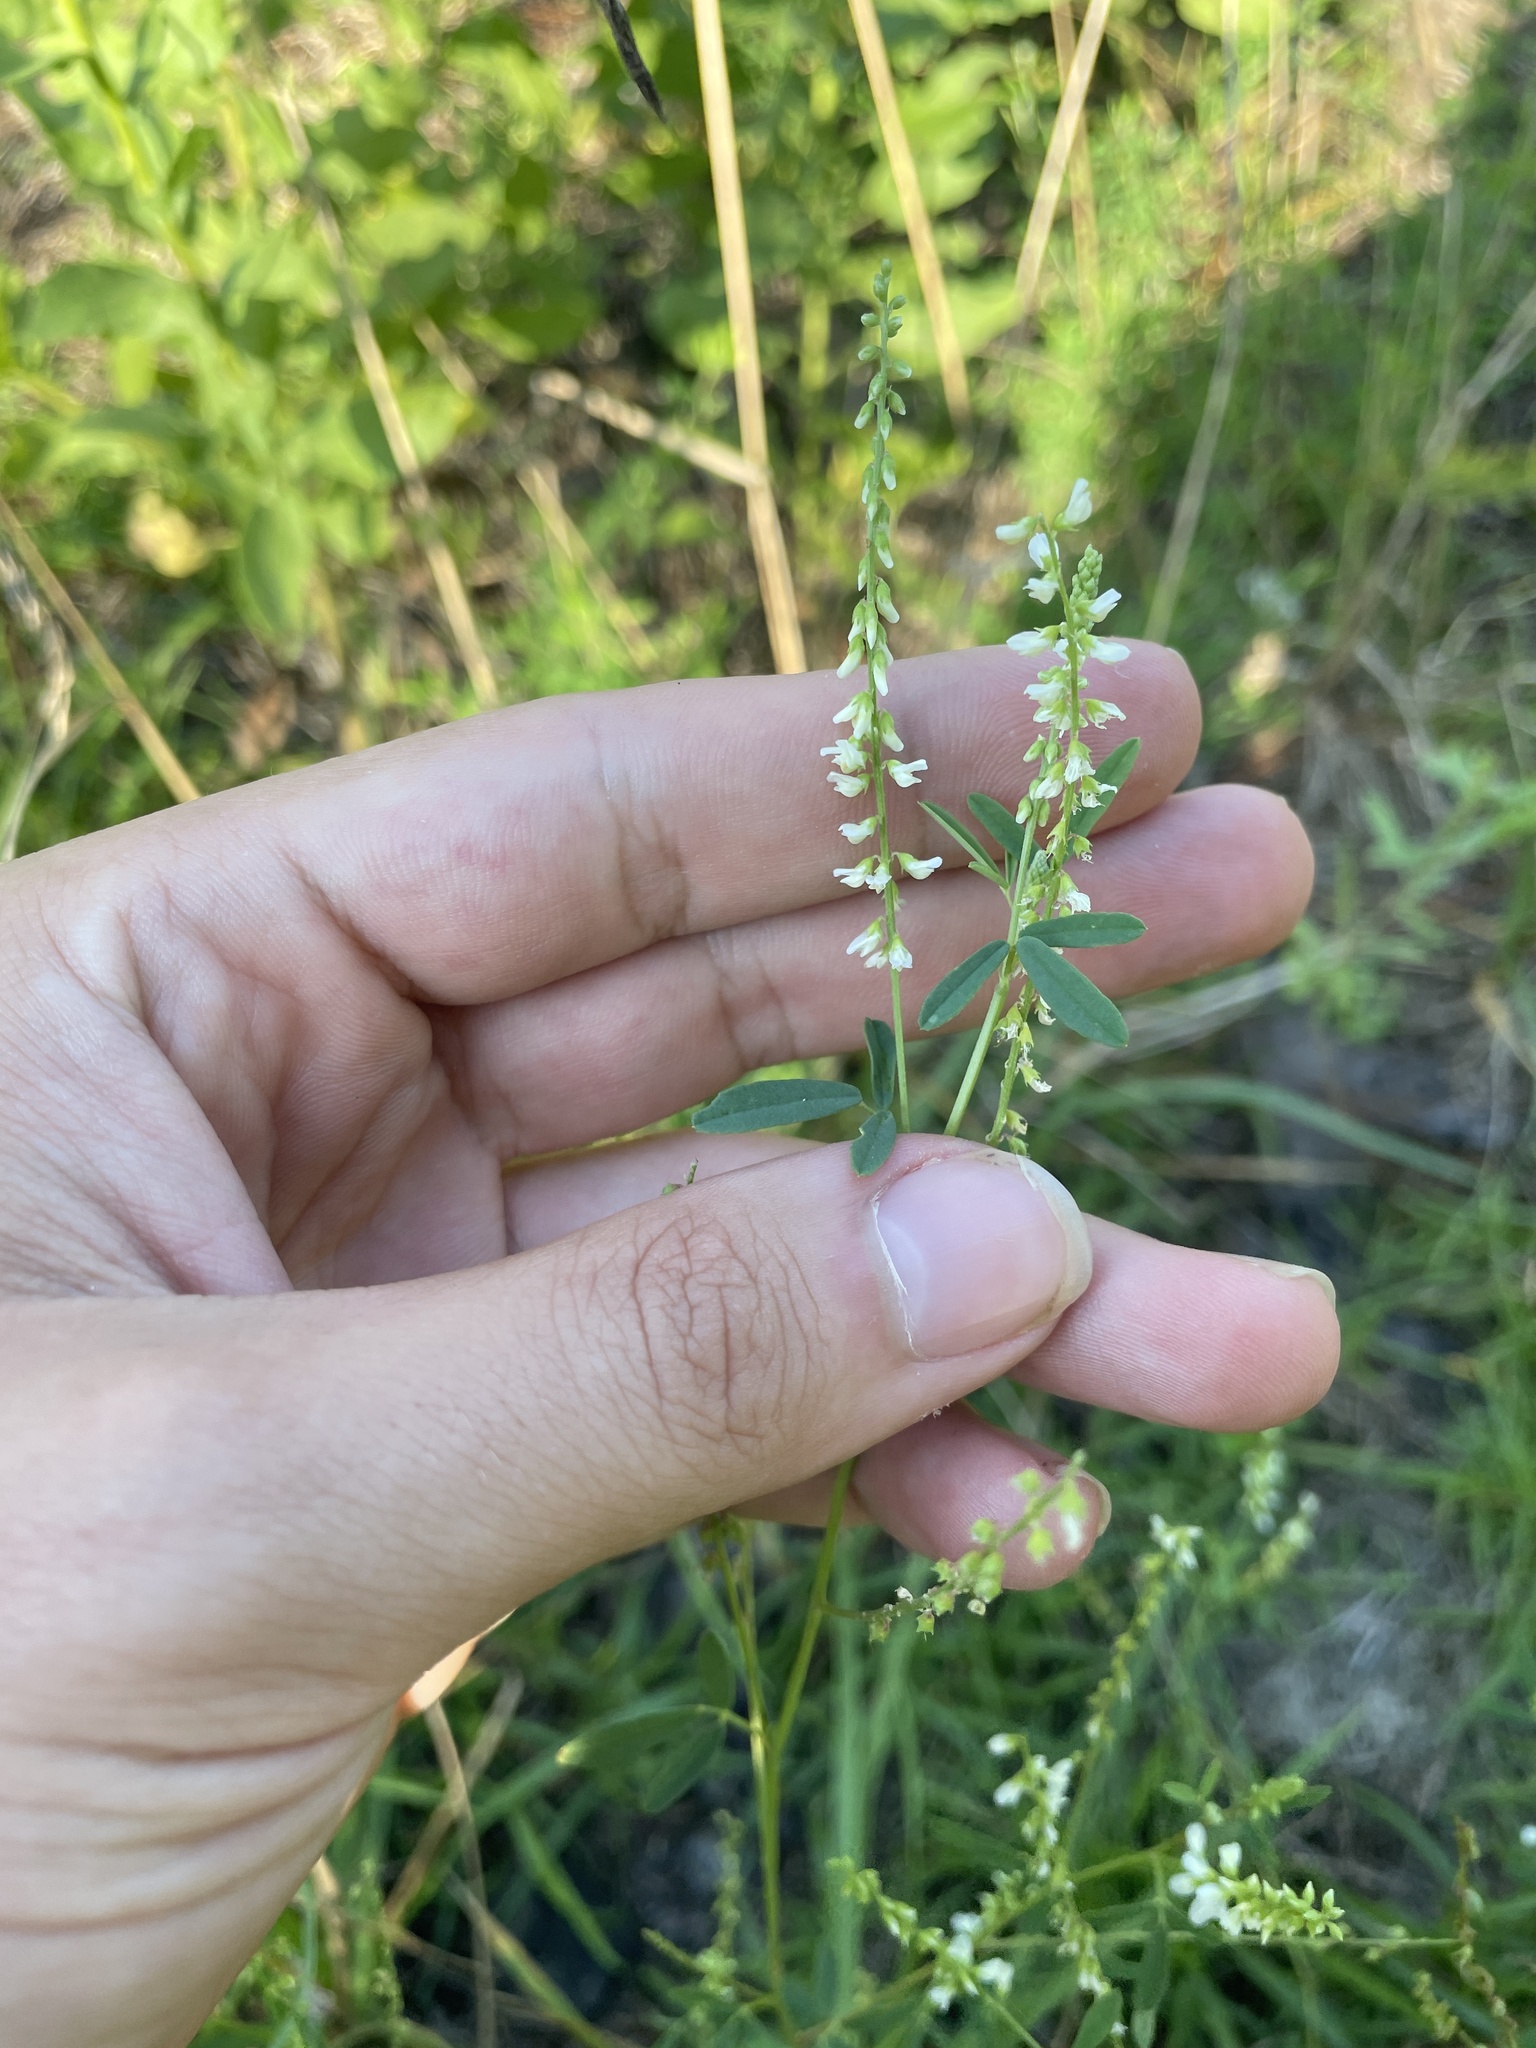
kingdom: Plantae
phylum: Tracheophyta
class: Magnoliopsida
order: Fabales
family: Fabaceae
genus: Melilotus
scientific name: Melilotus albus
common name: White melilot
